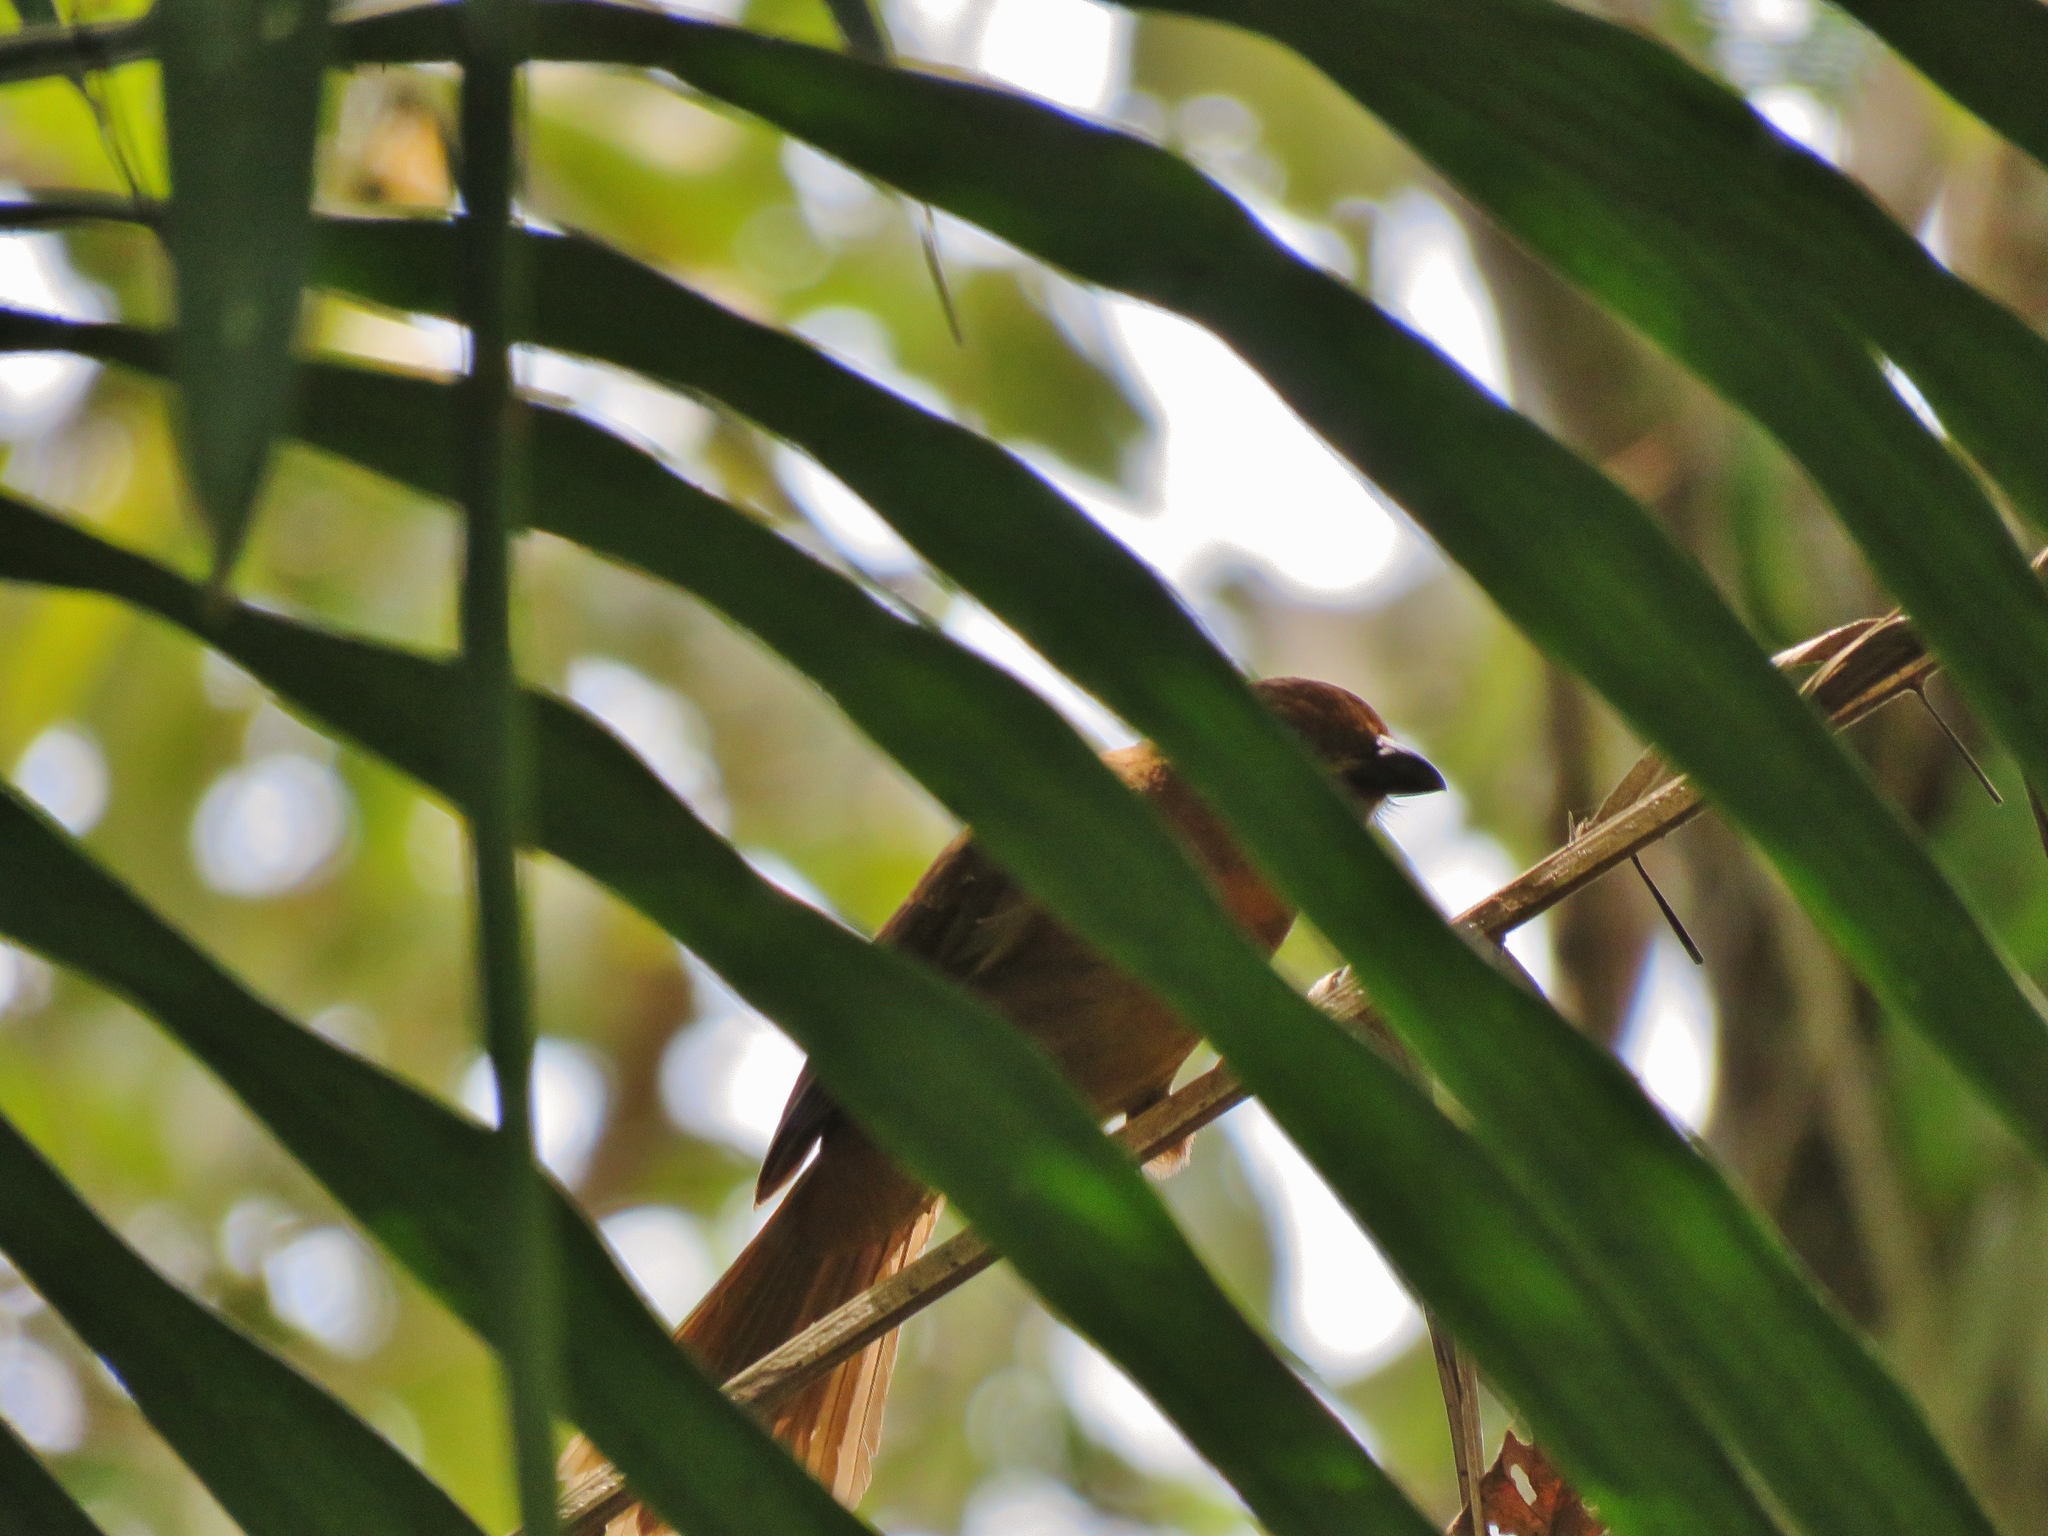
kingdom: Animalia
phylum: Chordata
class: Aves
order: Passeriformes
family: Cardinalidae
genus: Habia
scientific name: Habia fuscicauda
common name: Red-throated ant-tanager
